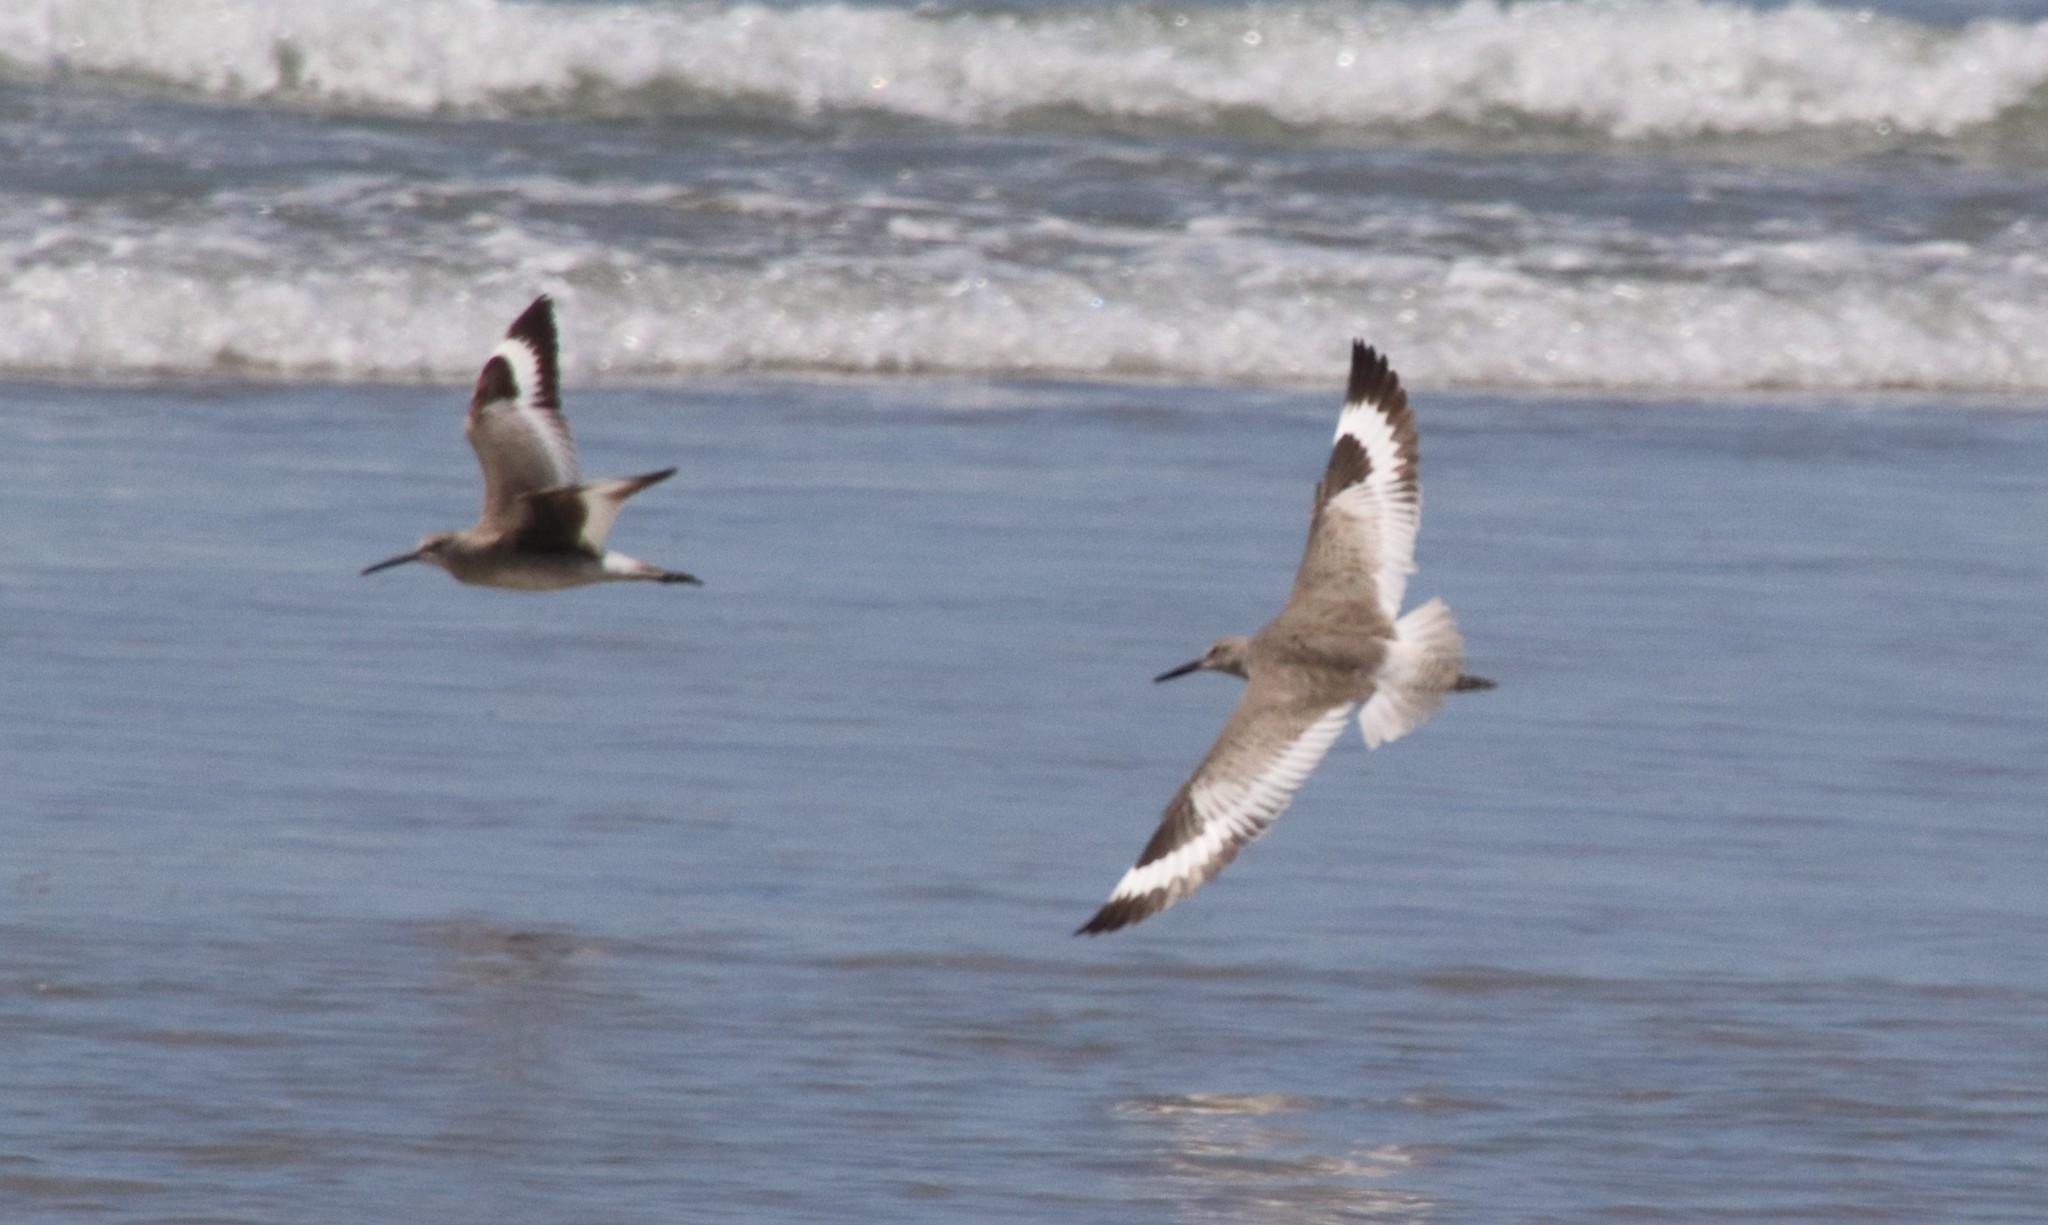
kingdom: Animalia
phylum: Chordata
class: Aves
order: Charadriiformes
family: Scolopacidae
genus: Tringa
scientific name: Tringa semipalmata
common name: Willet
